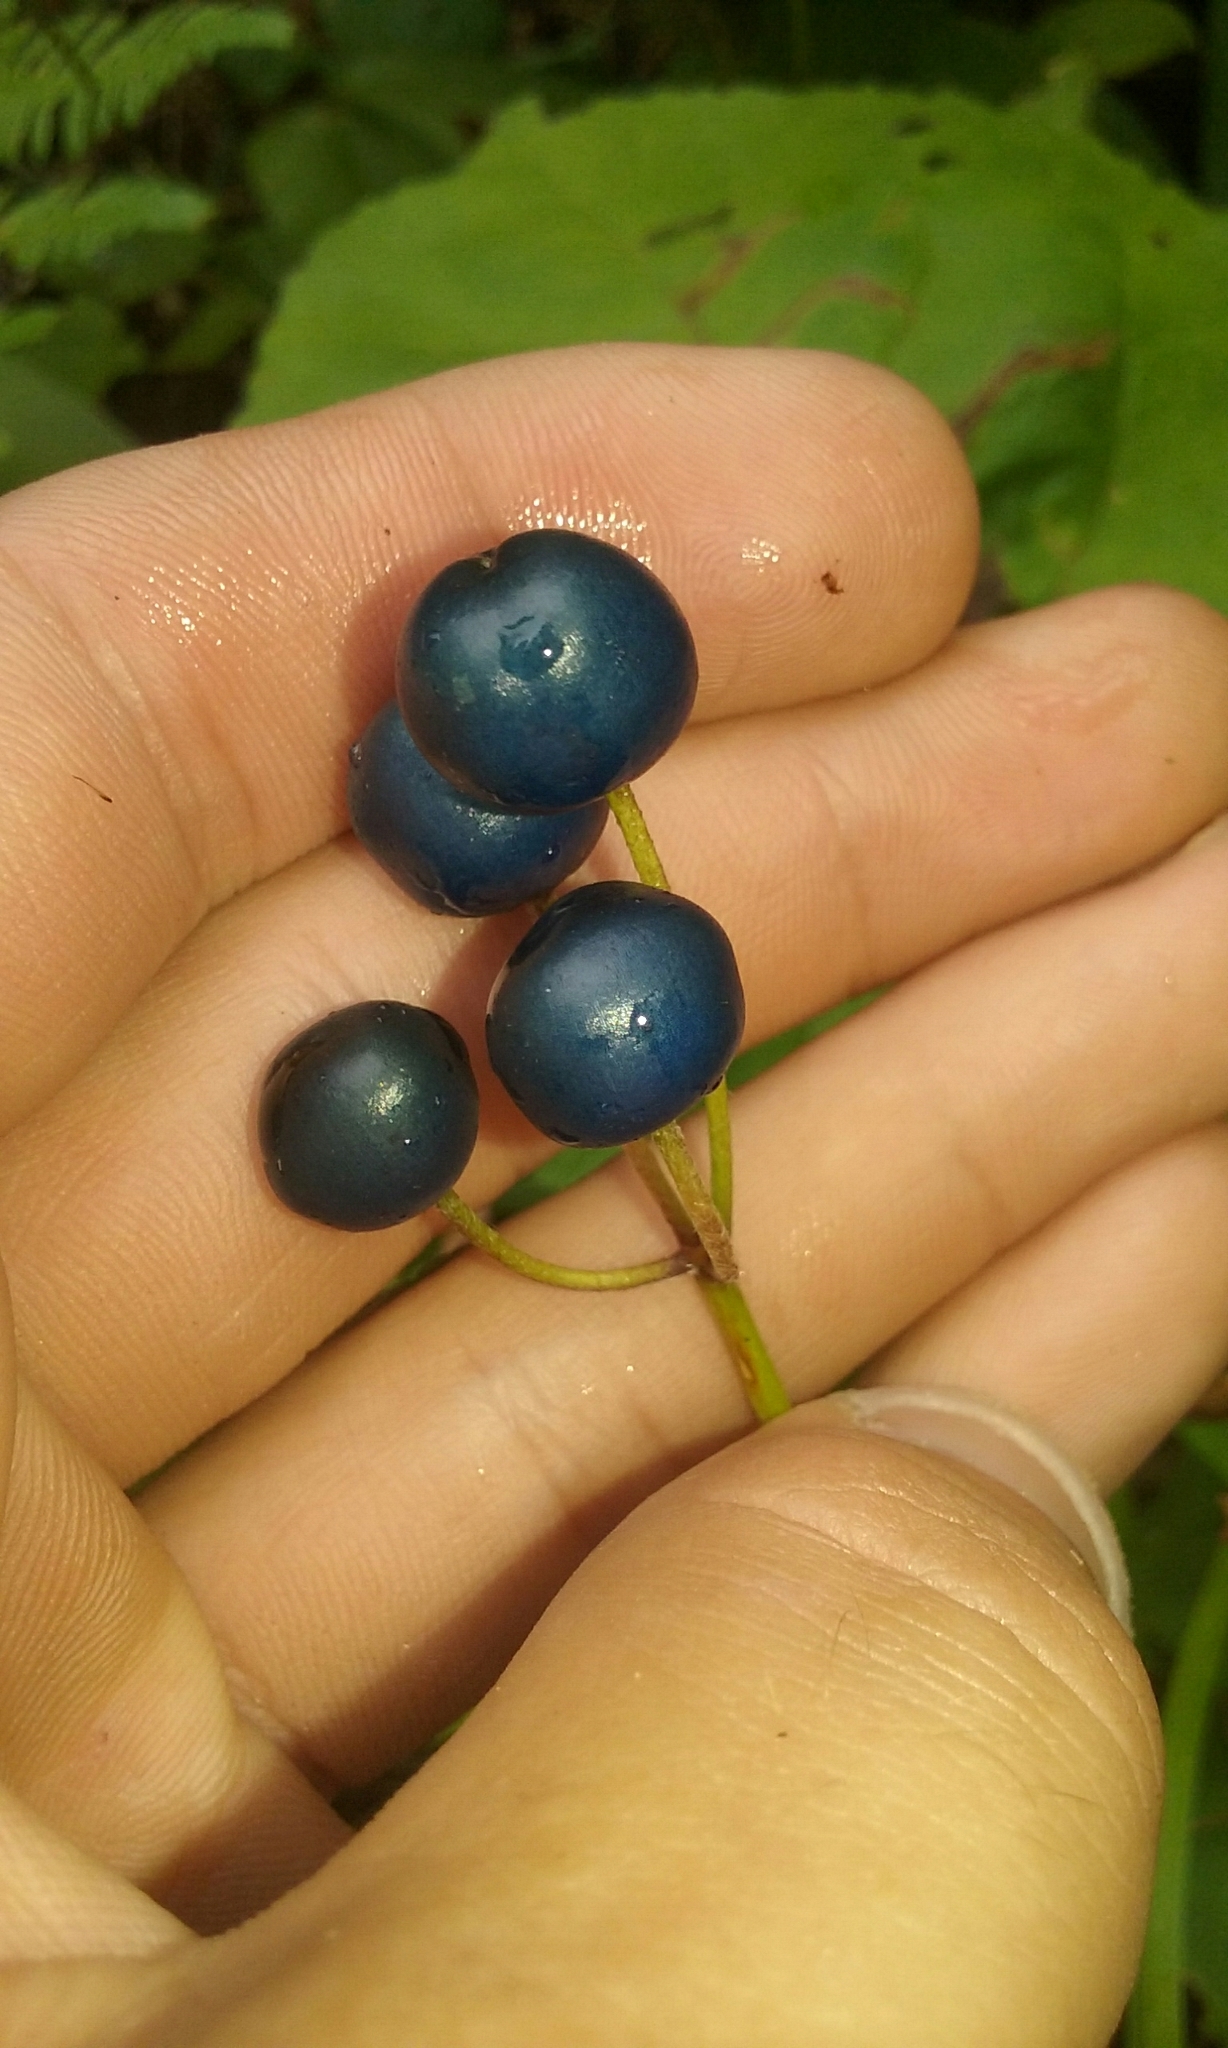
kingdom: Plantae
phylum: Tracheophyta
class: Liliopsida
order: Liliales
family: Liliaceae
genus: Clintonia
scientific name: Clintonia borealis
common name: Yellow clintonia
